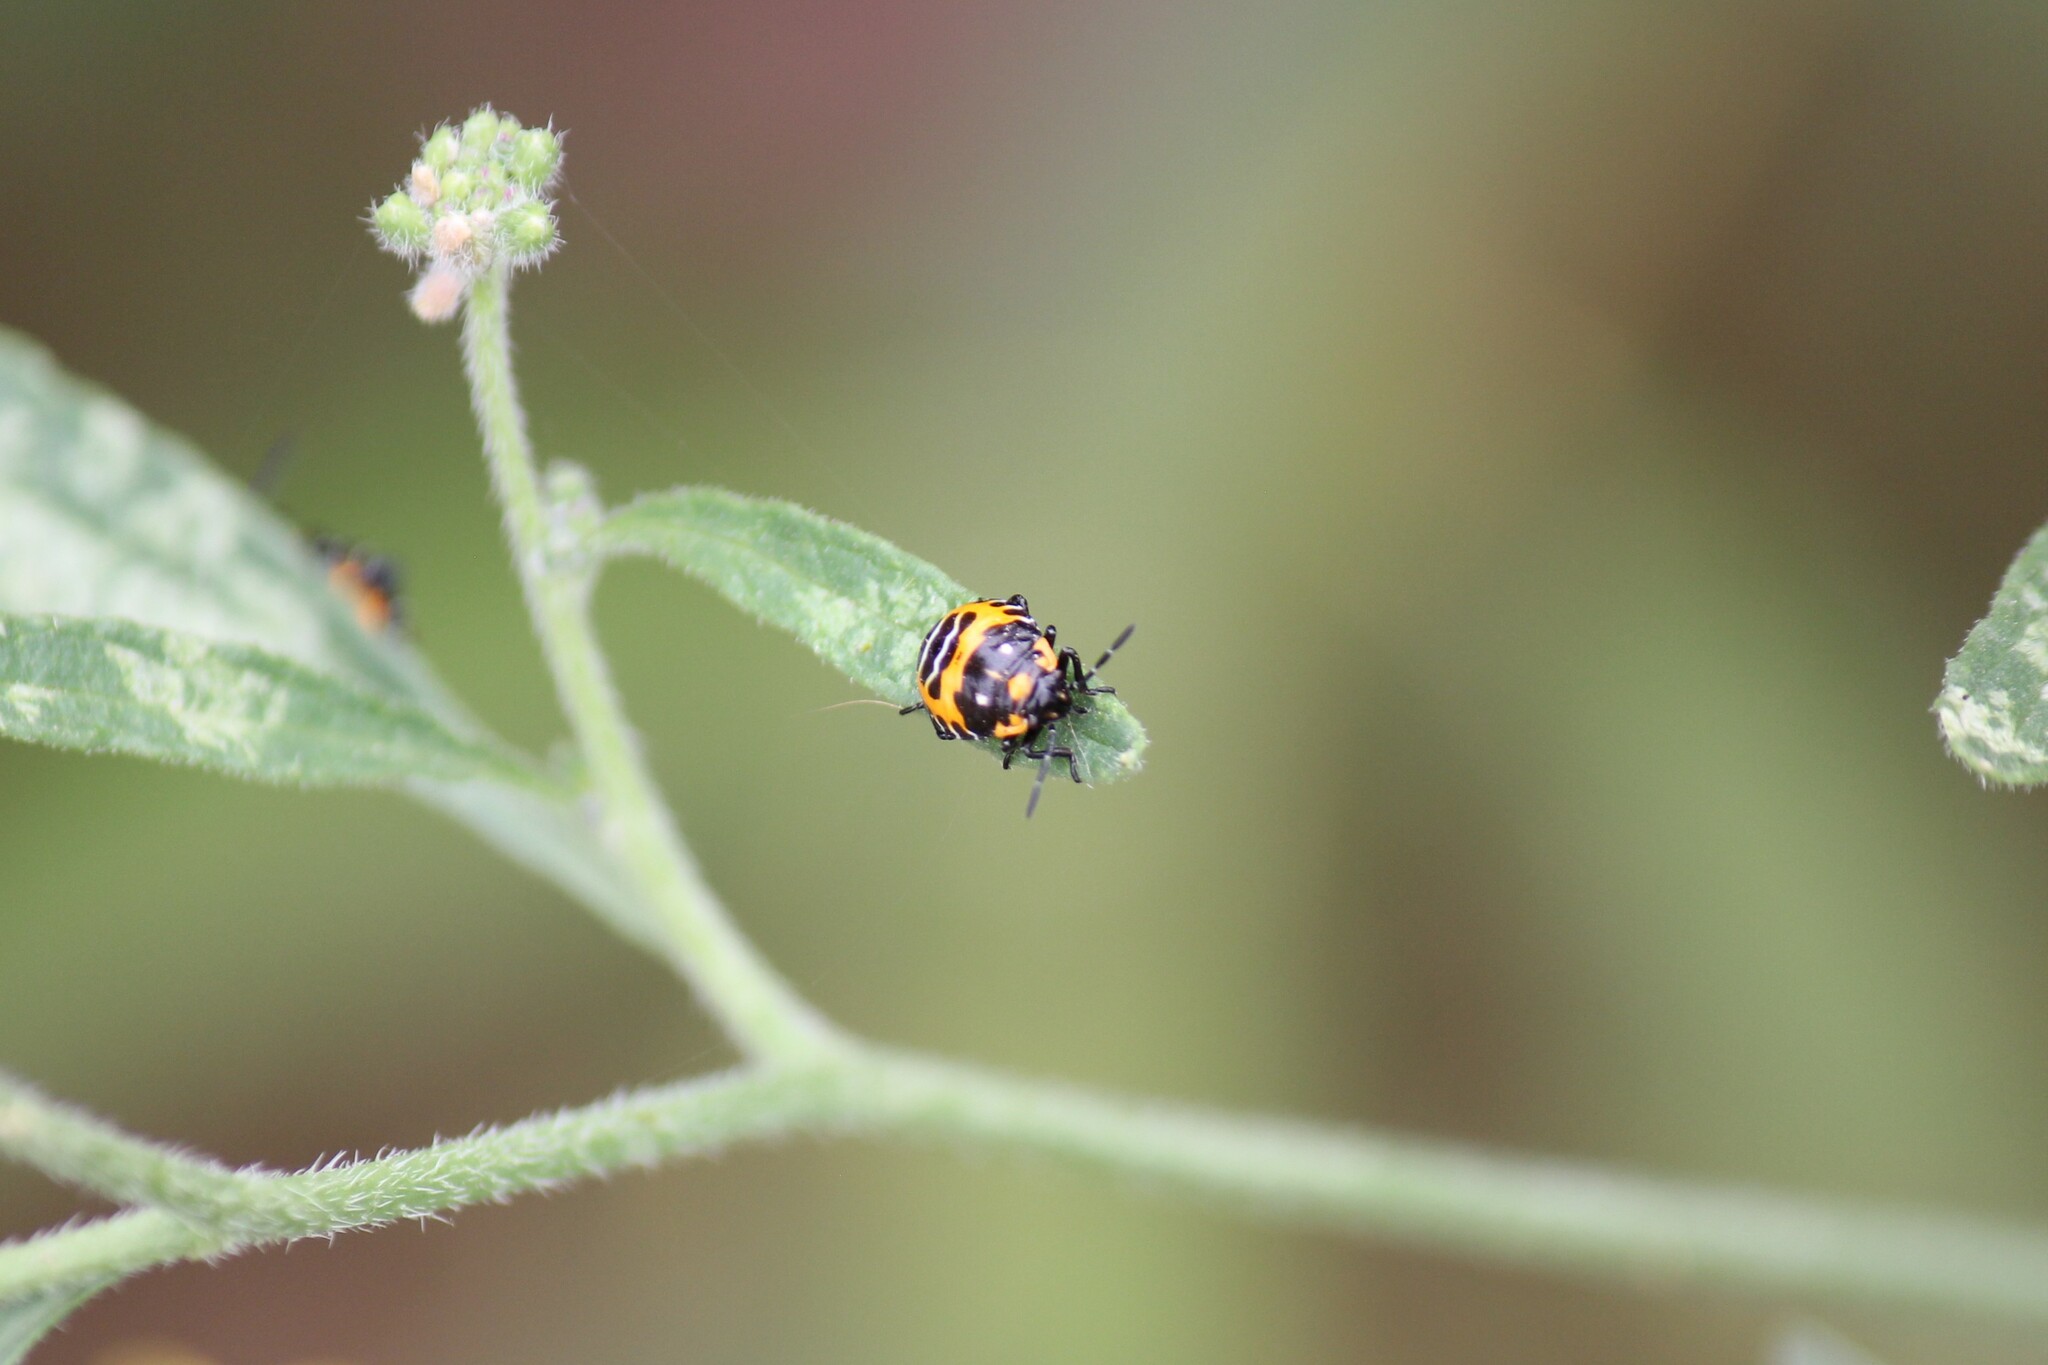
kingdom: Animalia
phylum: Arthropoda
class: Insecta
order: Hemiptera
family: Pentatomidae
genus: Murgantia
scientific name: Murgantia histrionica
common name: Harlequin bug
